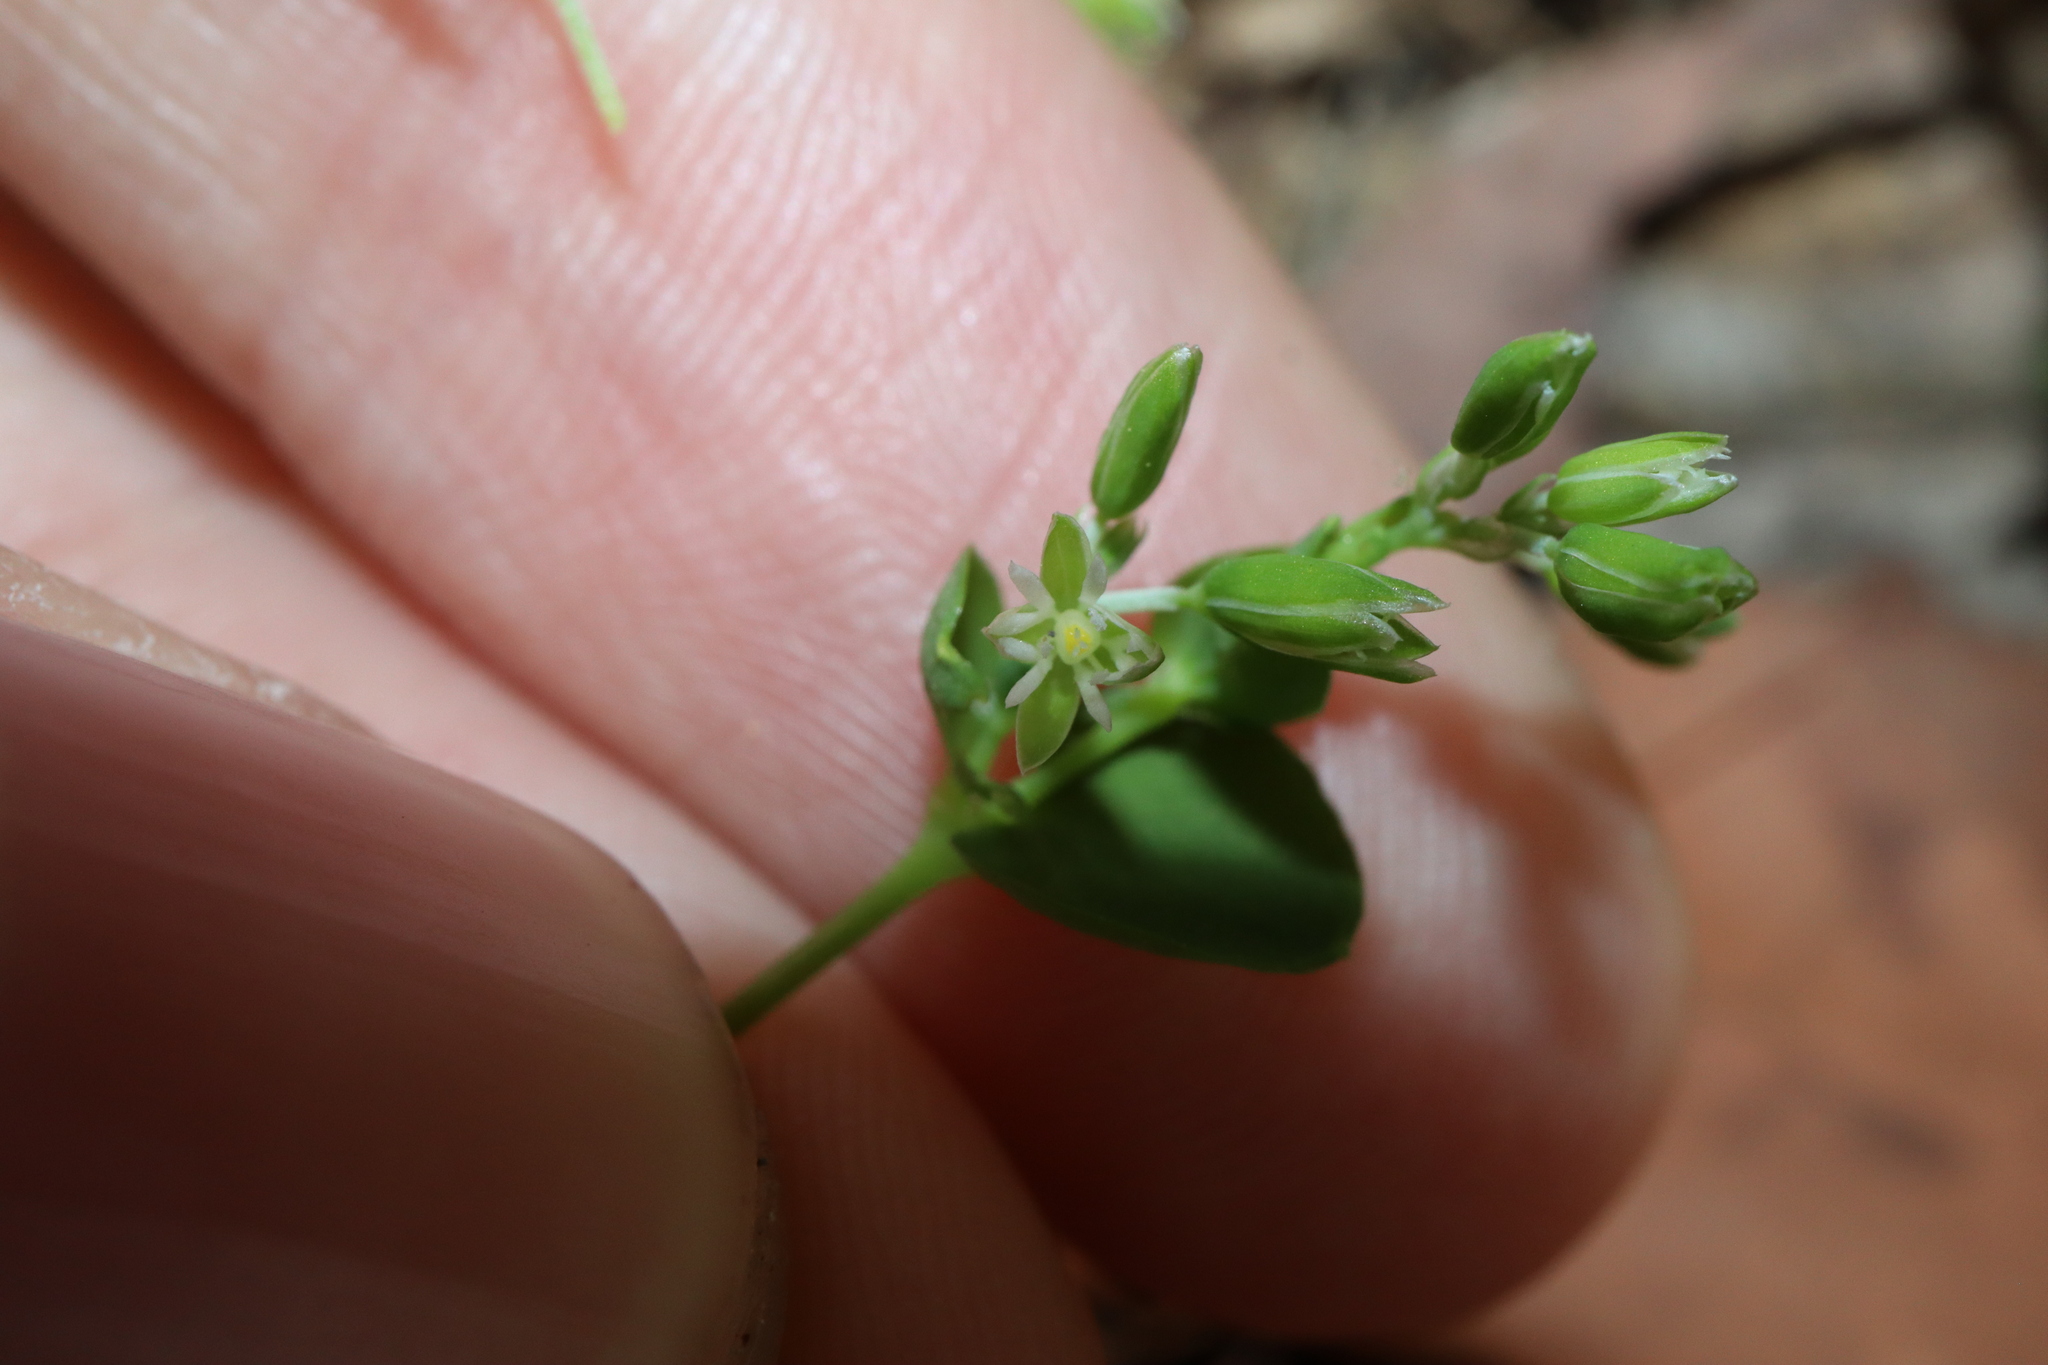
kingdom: Plantae
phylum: Tracheophyta
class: Magnoliopsida
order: Caryophyllales
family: Caryophyllaceae
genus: Drymaria
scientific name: Drymaria cordata
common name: Whitesnow
